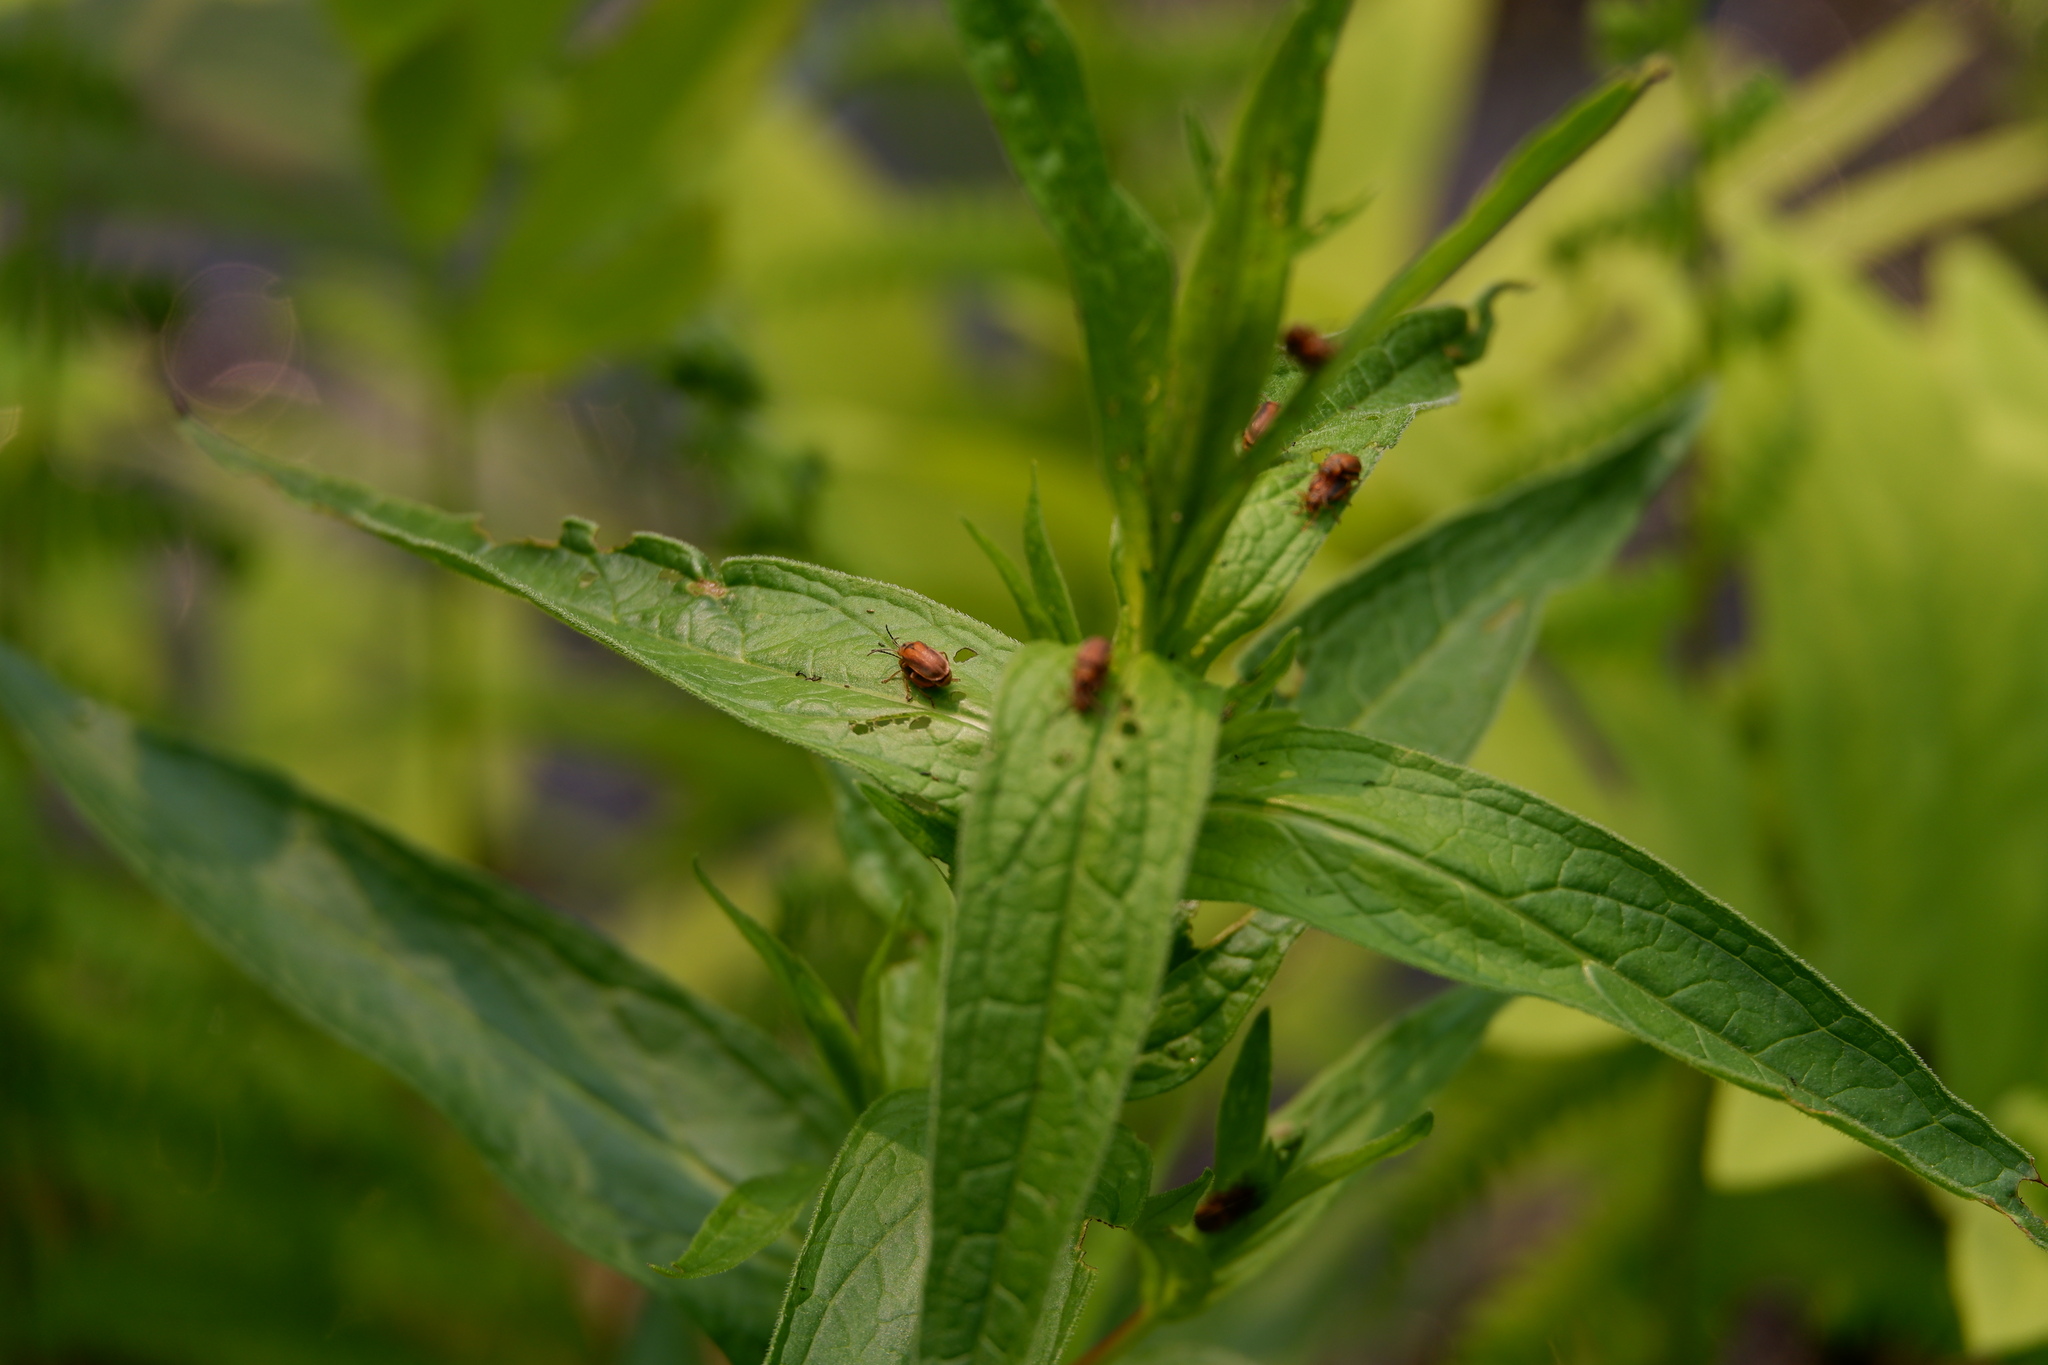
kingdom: Animalia
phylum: Arthropoda
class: Insecta
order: Coleoptera
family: Chrysomelidae
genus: Neogalerucella
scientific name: Neogalerucella calmariensis
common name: Black-margined loosestrife beetle
